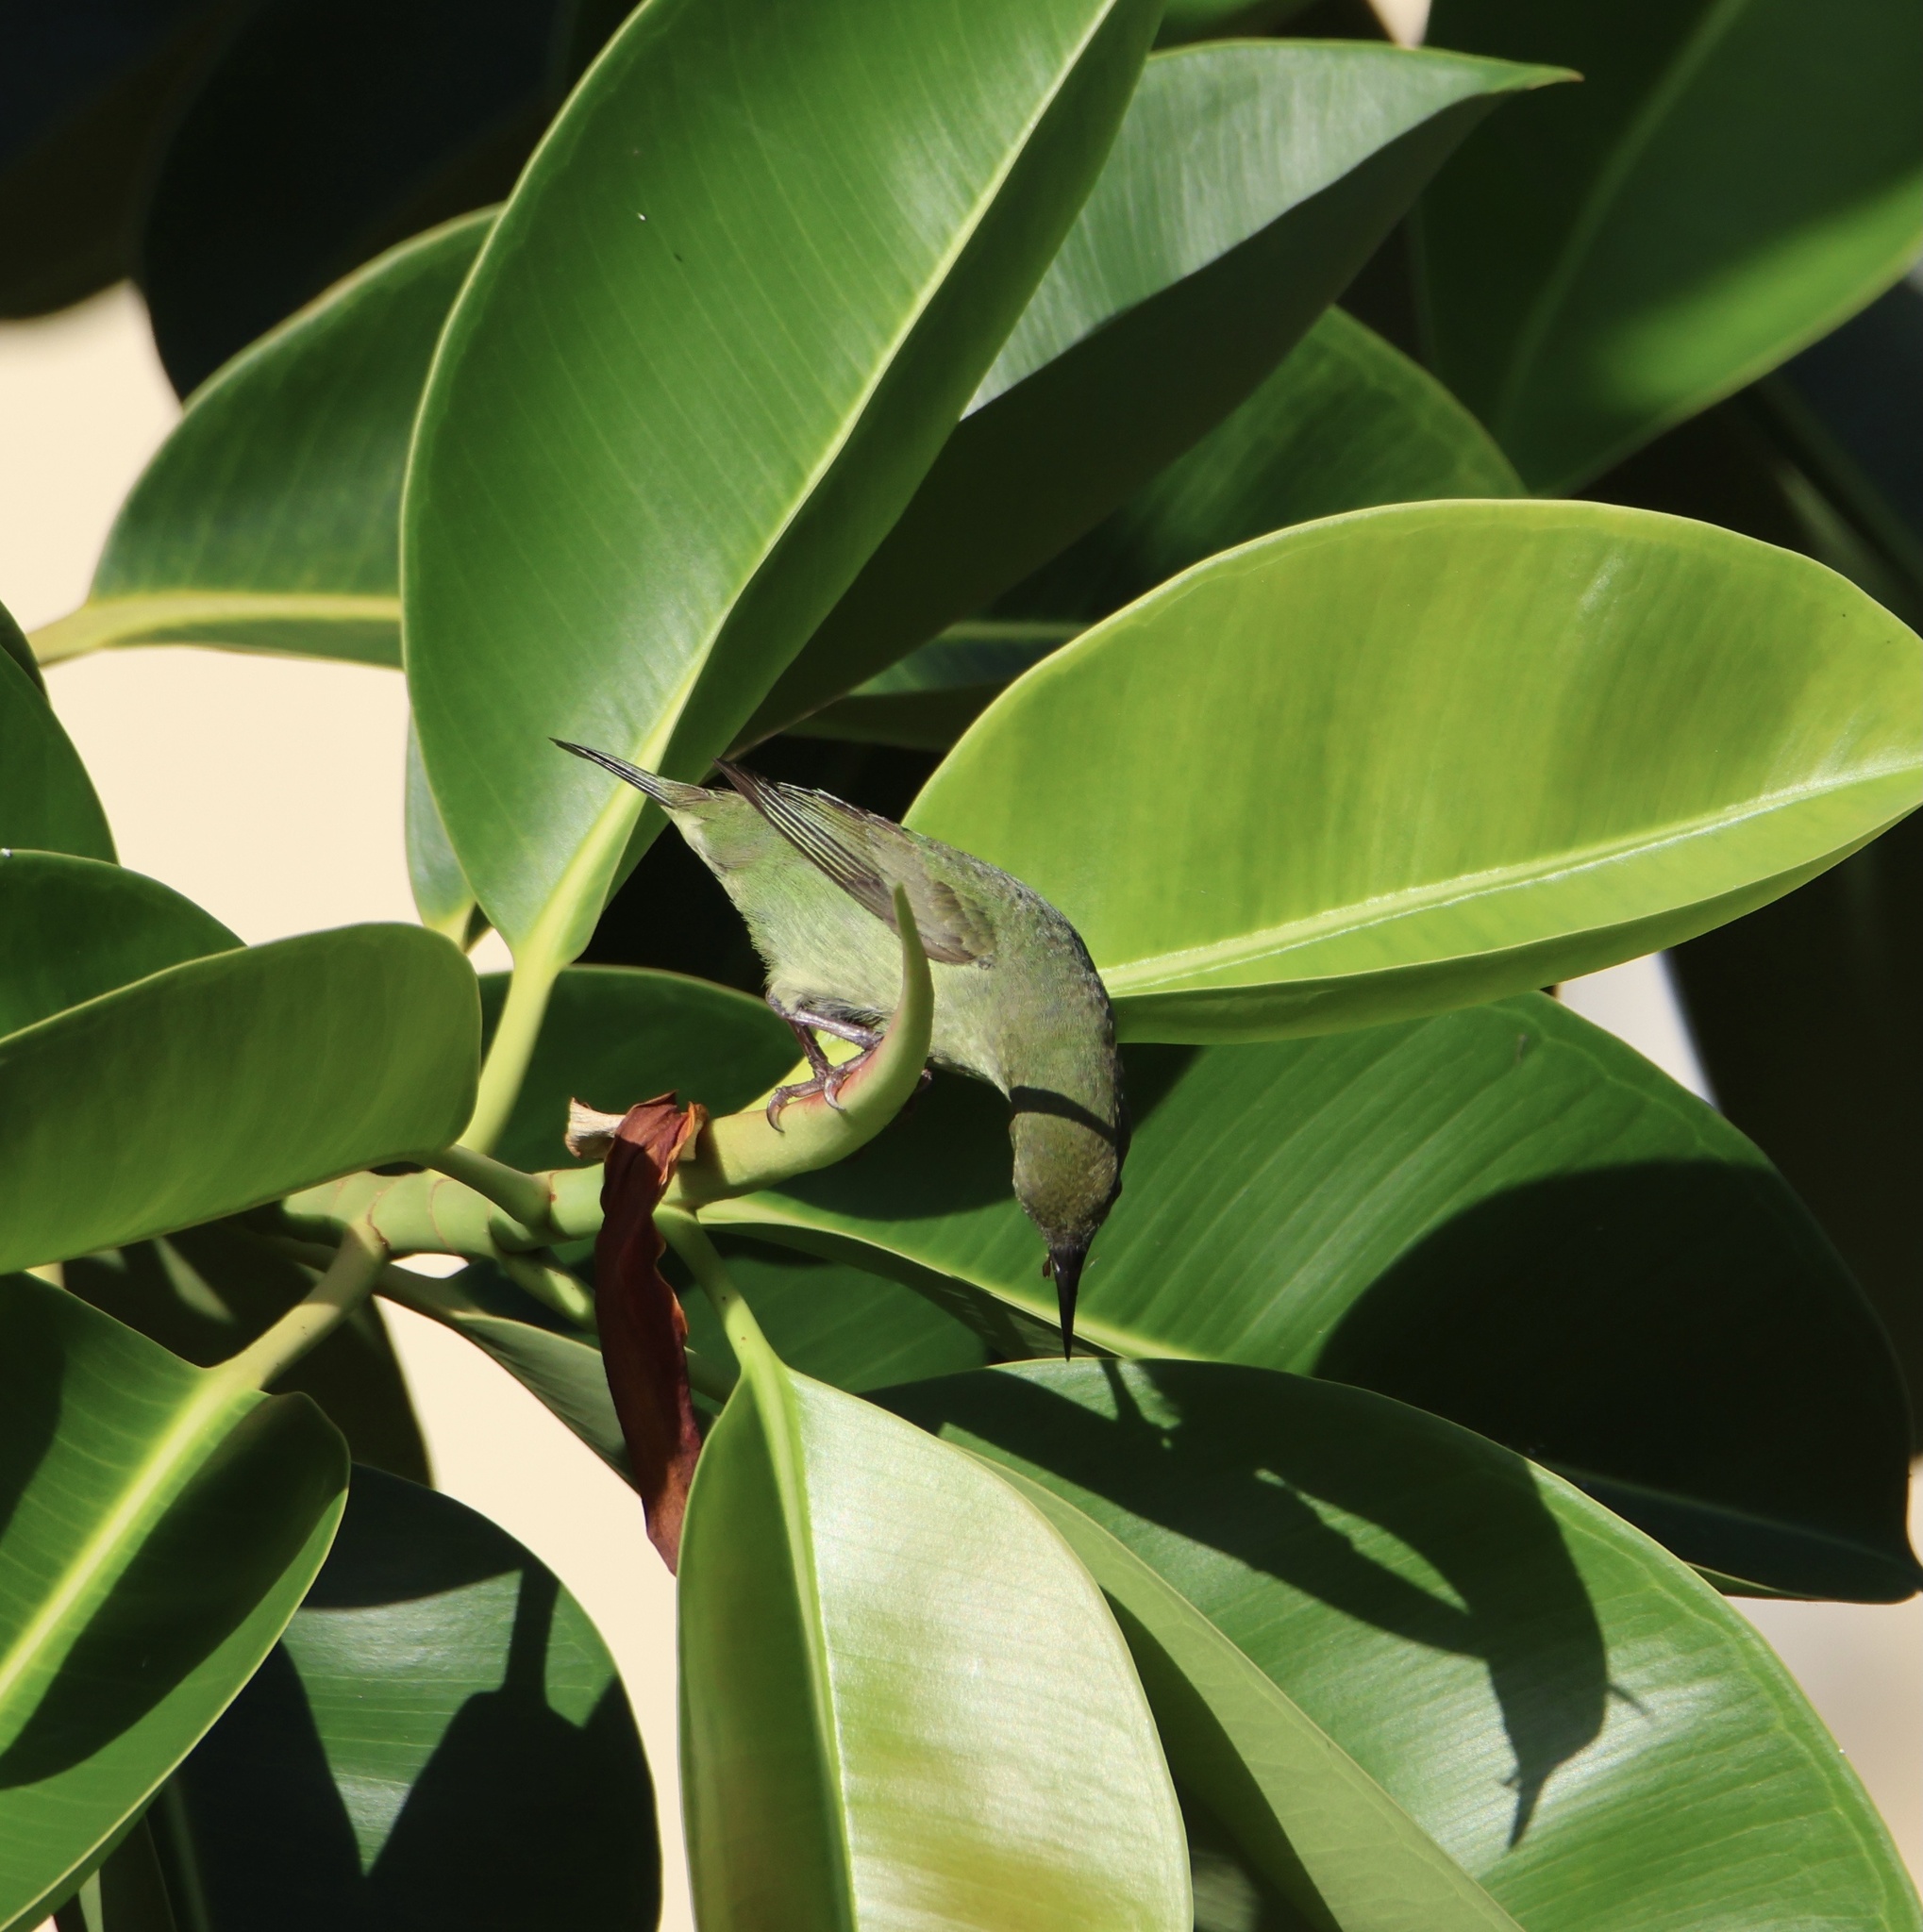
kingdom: Animalia
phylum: Chordata
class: Aves
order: Passeriformes
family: Thraupidae
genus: Cyanerpes
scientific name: Cyanerpes cyaneus
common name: Red-legged honeycreeper
